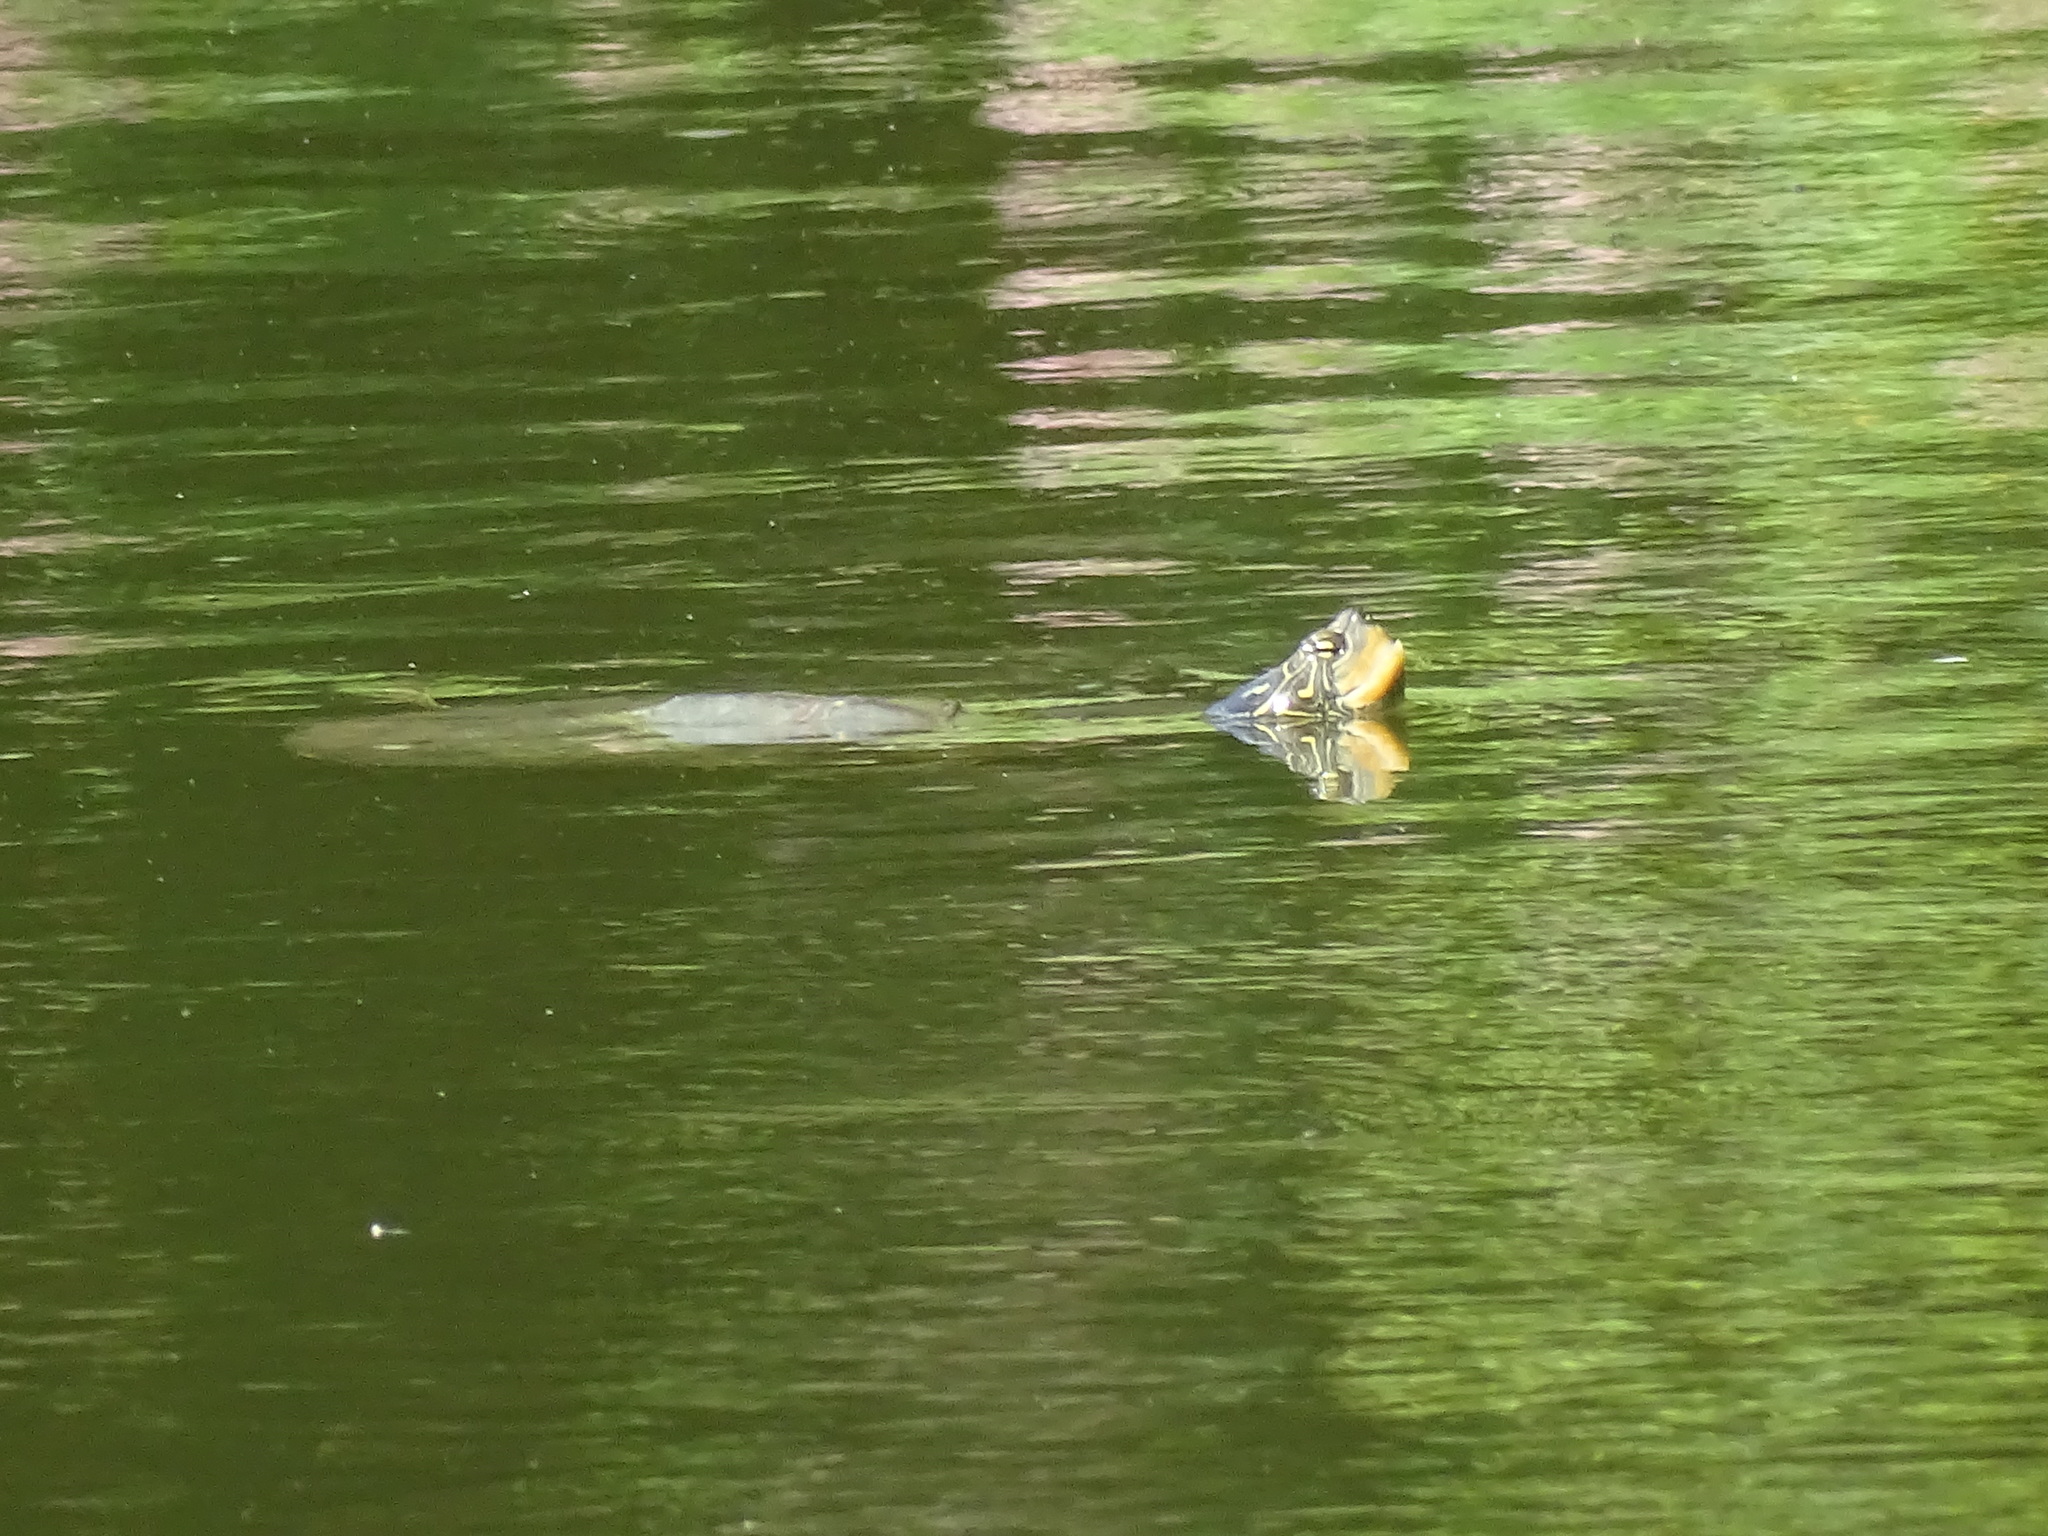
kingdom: Animalia
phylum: Chordata
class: Testudines
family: Emydidae
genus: Graptemys
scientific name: Graptemys geographica
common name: Common map turtle
